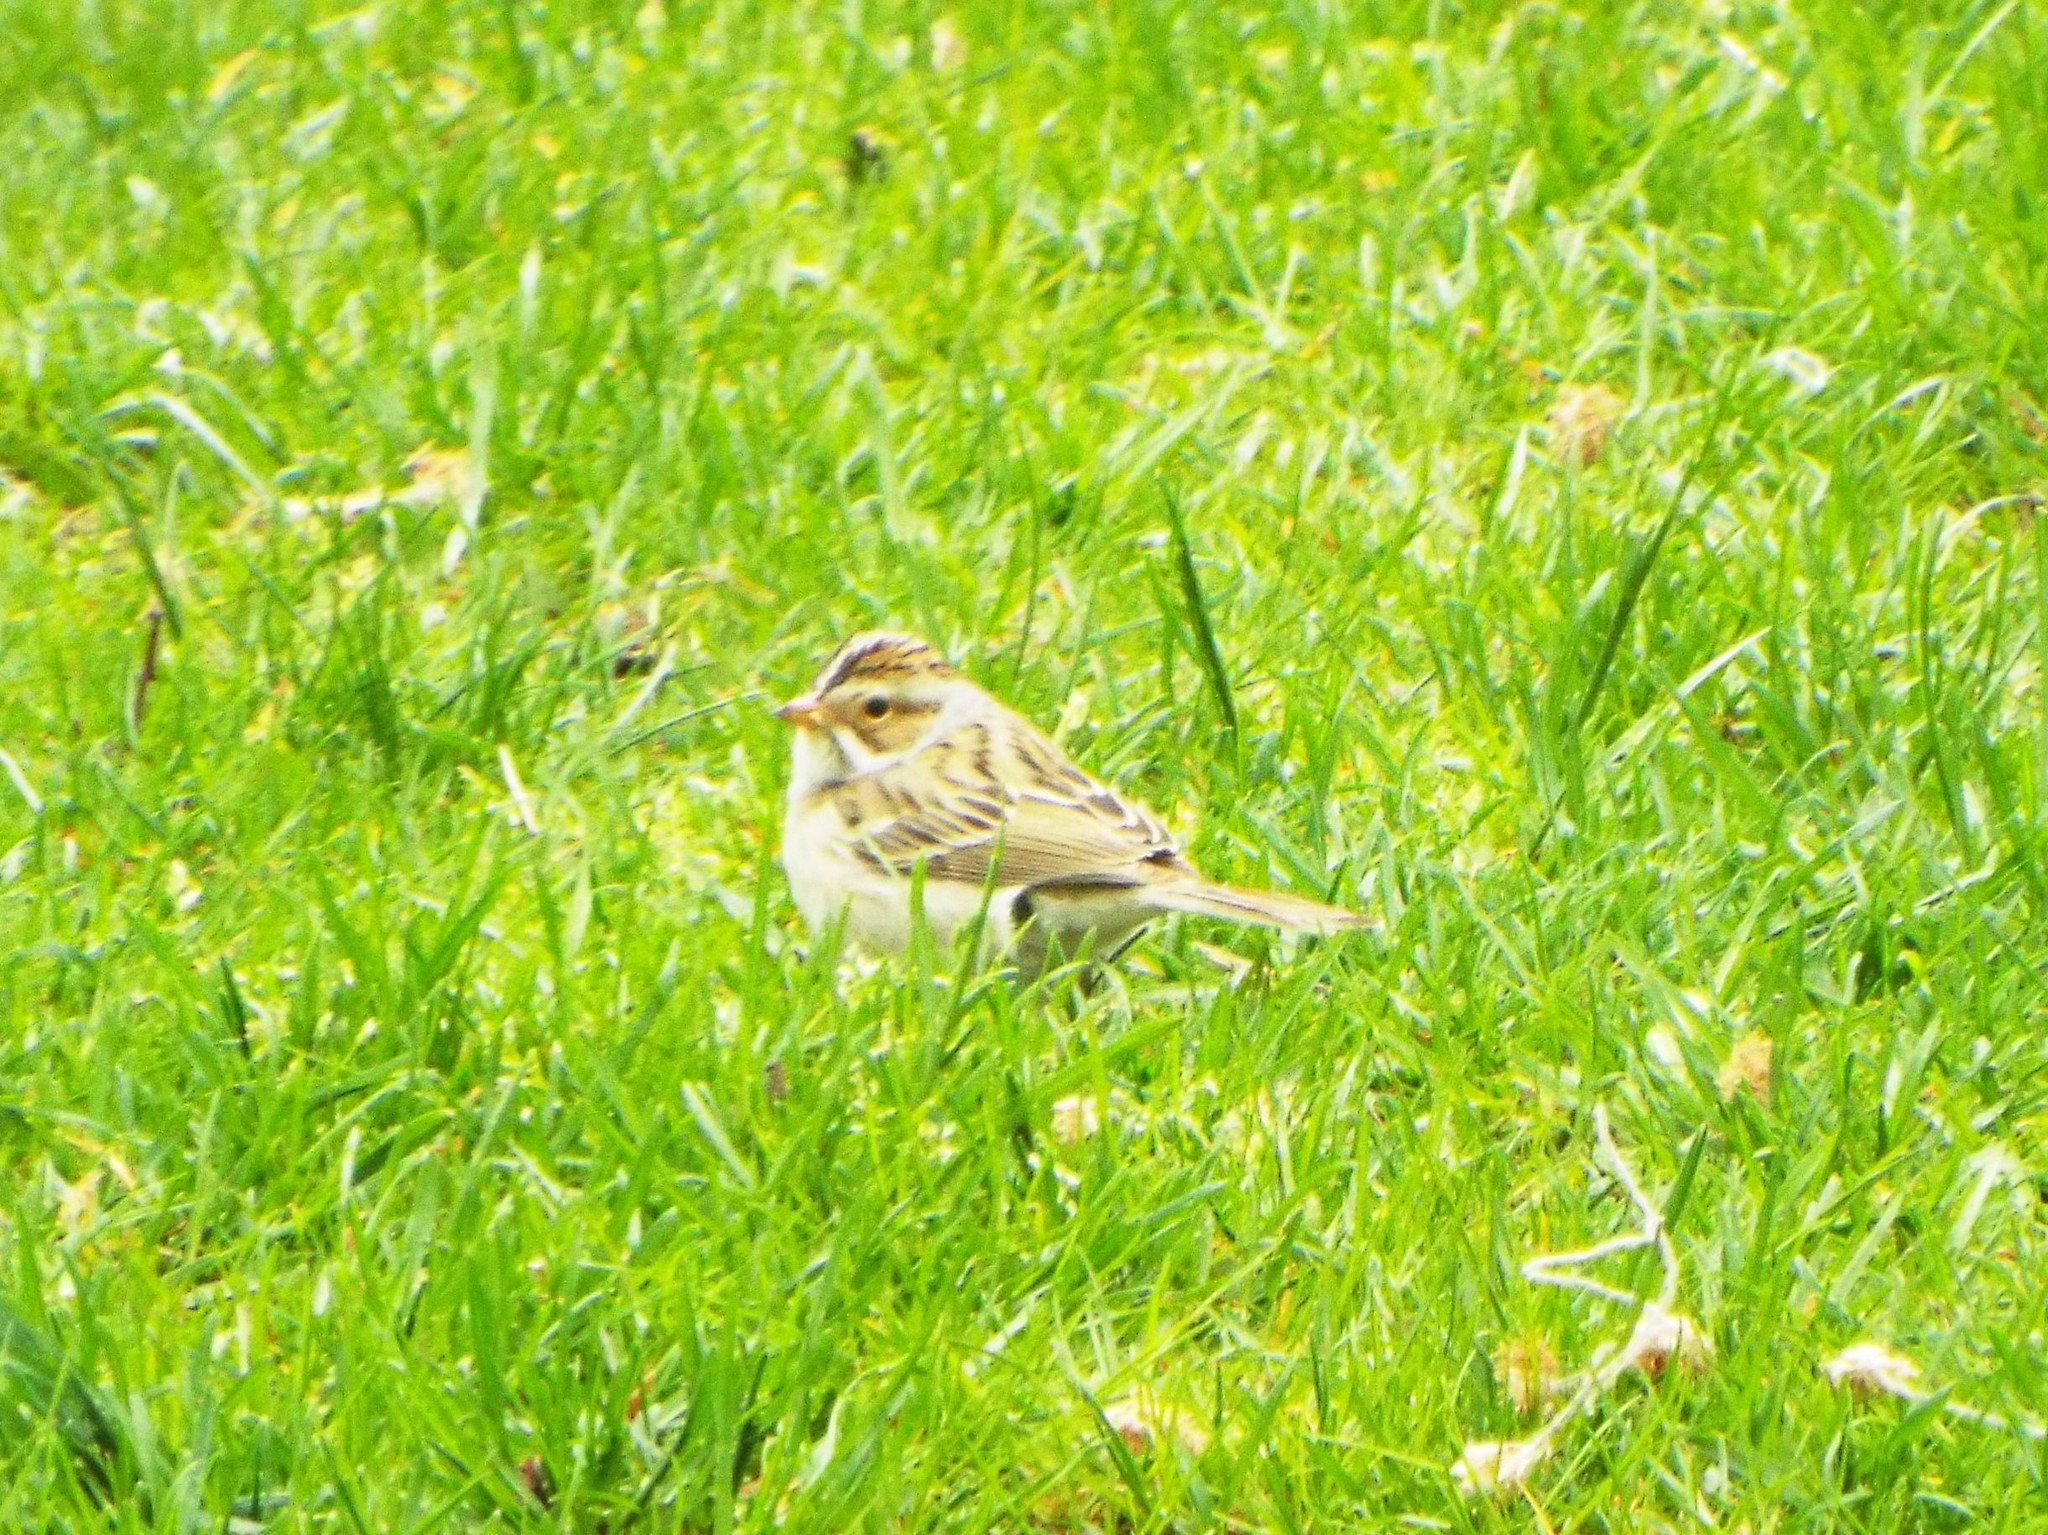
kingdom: Animalia
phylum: Chordata
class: Aves
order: Passeriformes
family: Passerellidae
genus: Spizella
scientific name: Spizella pallida
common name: Clay-colored sparrow
